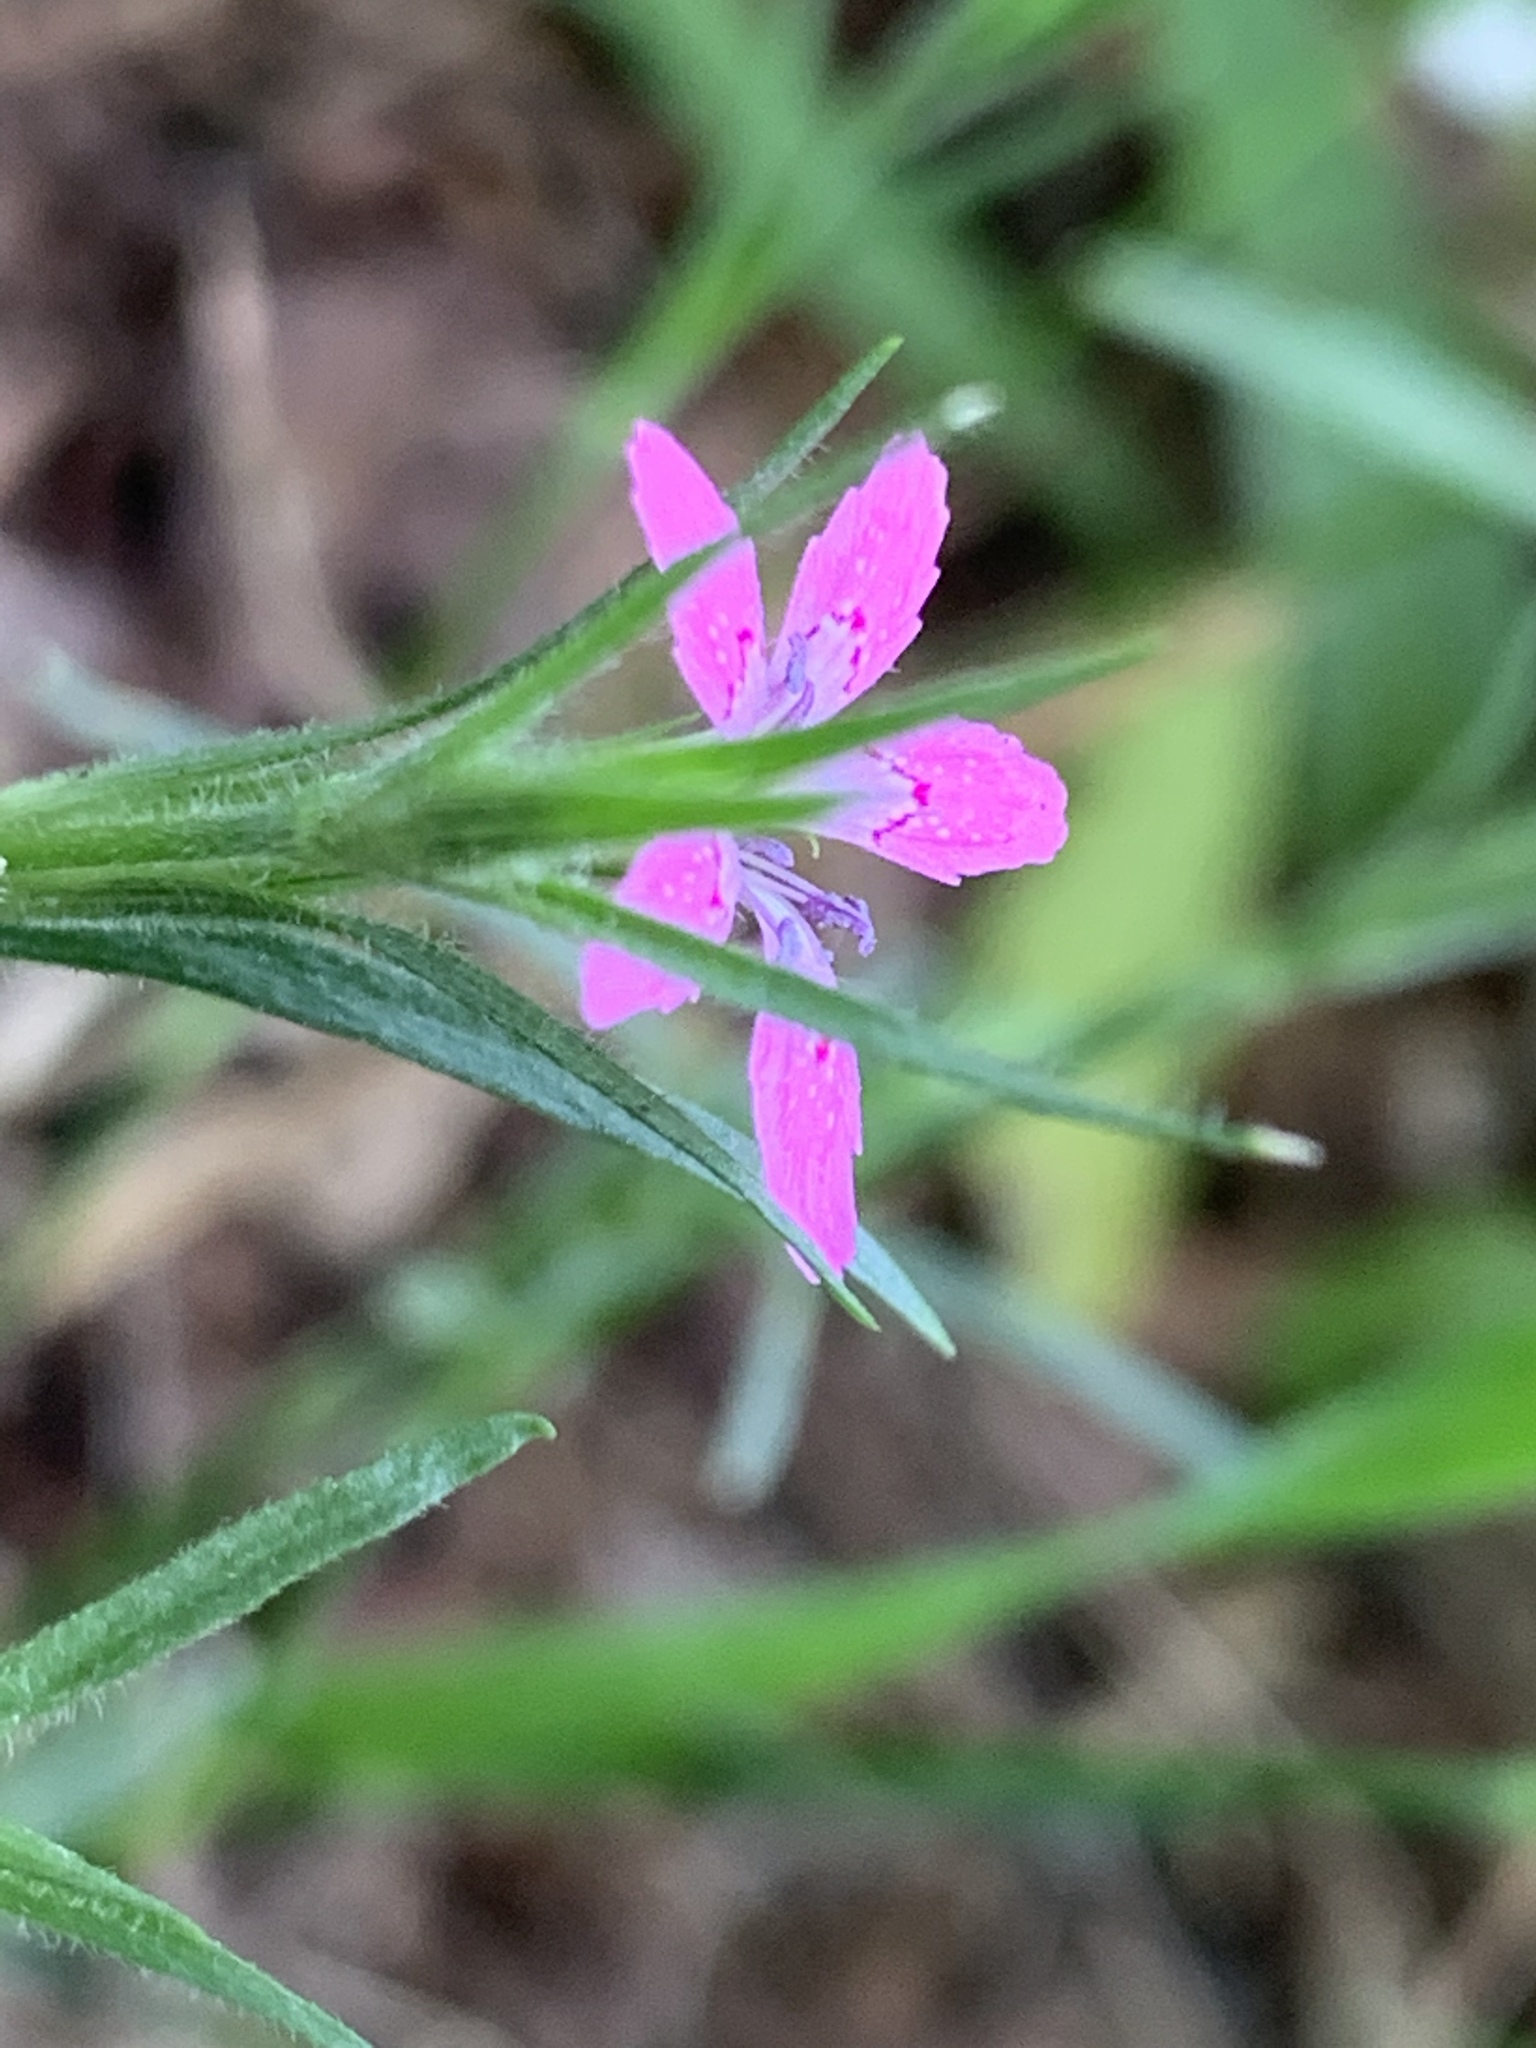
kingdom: Plantae
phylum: Tracheophyta
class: Magnoliopsida
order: Caryophyllales
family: Caryophyllaceae
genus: Dianthus
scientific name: Dianthus armeria
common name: Deptford pink
